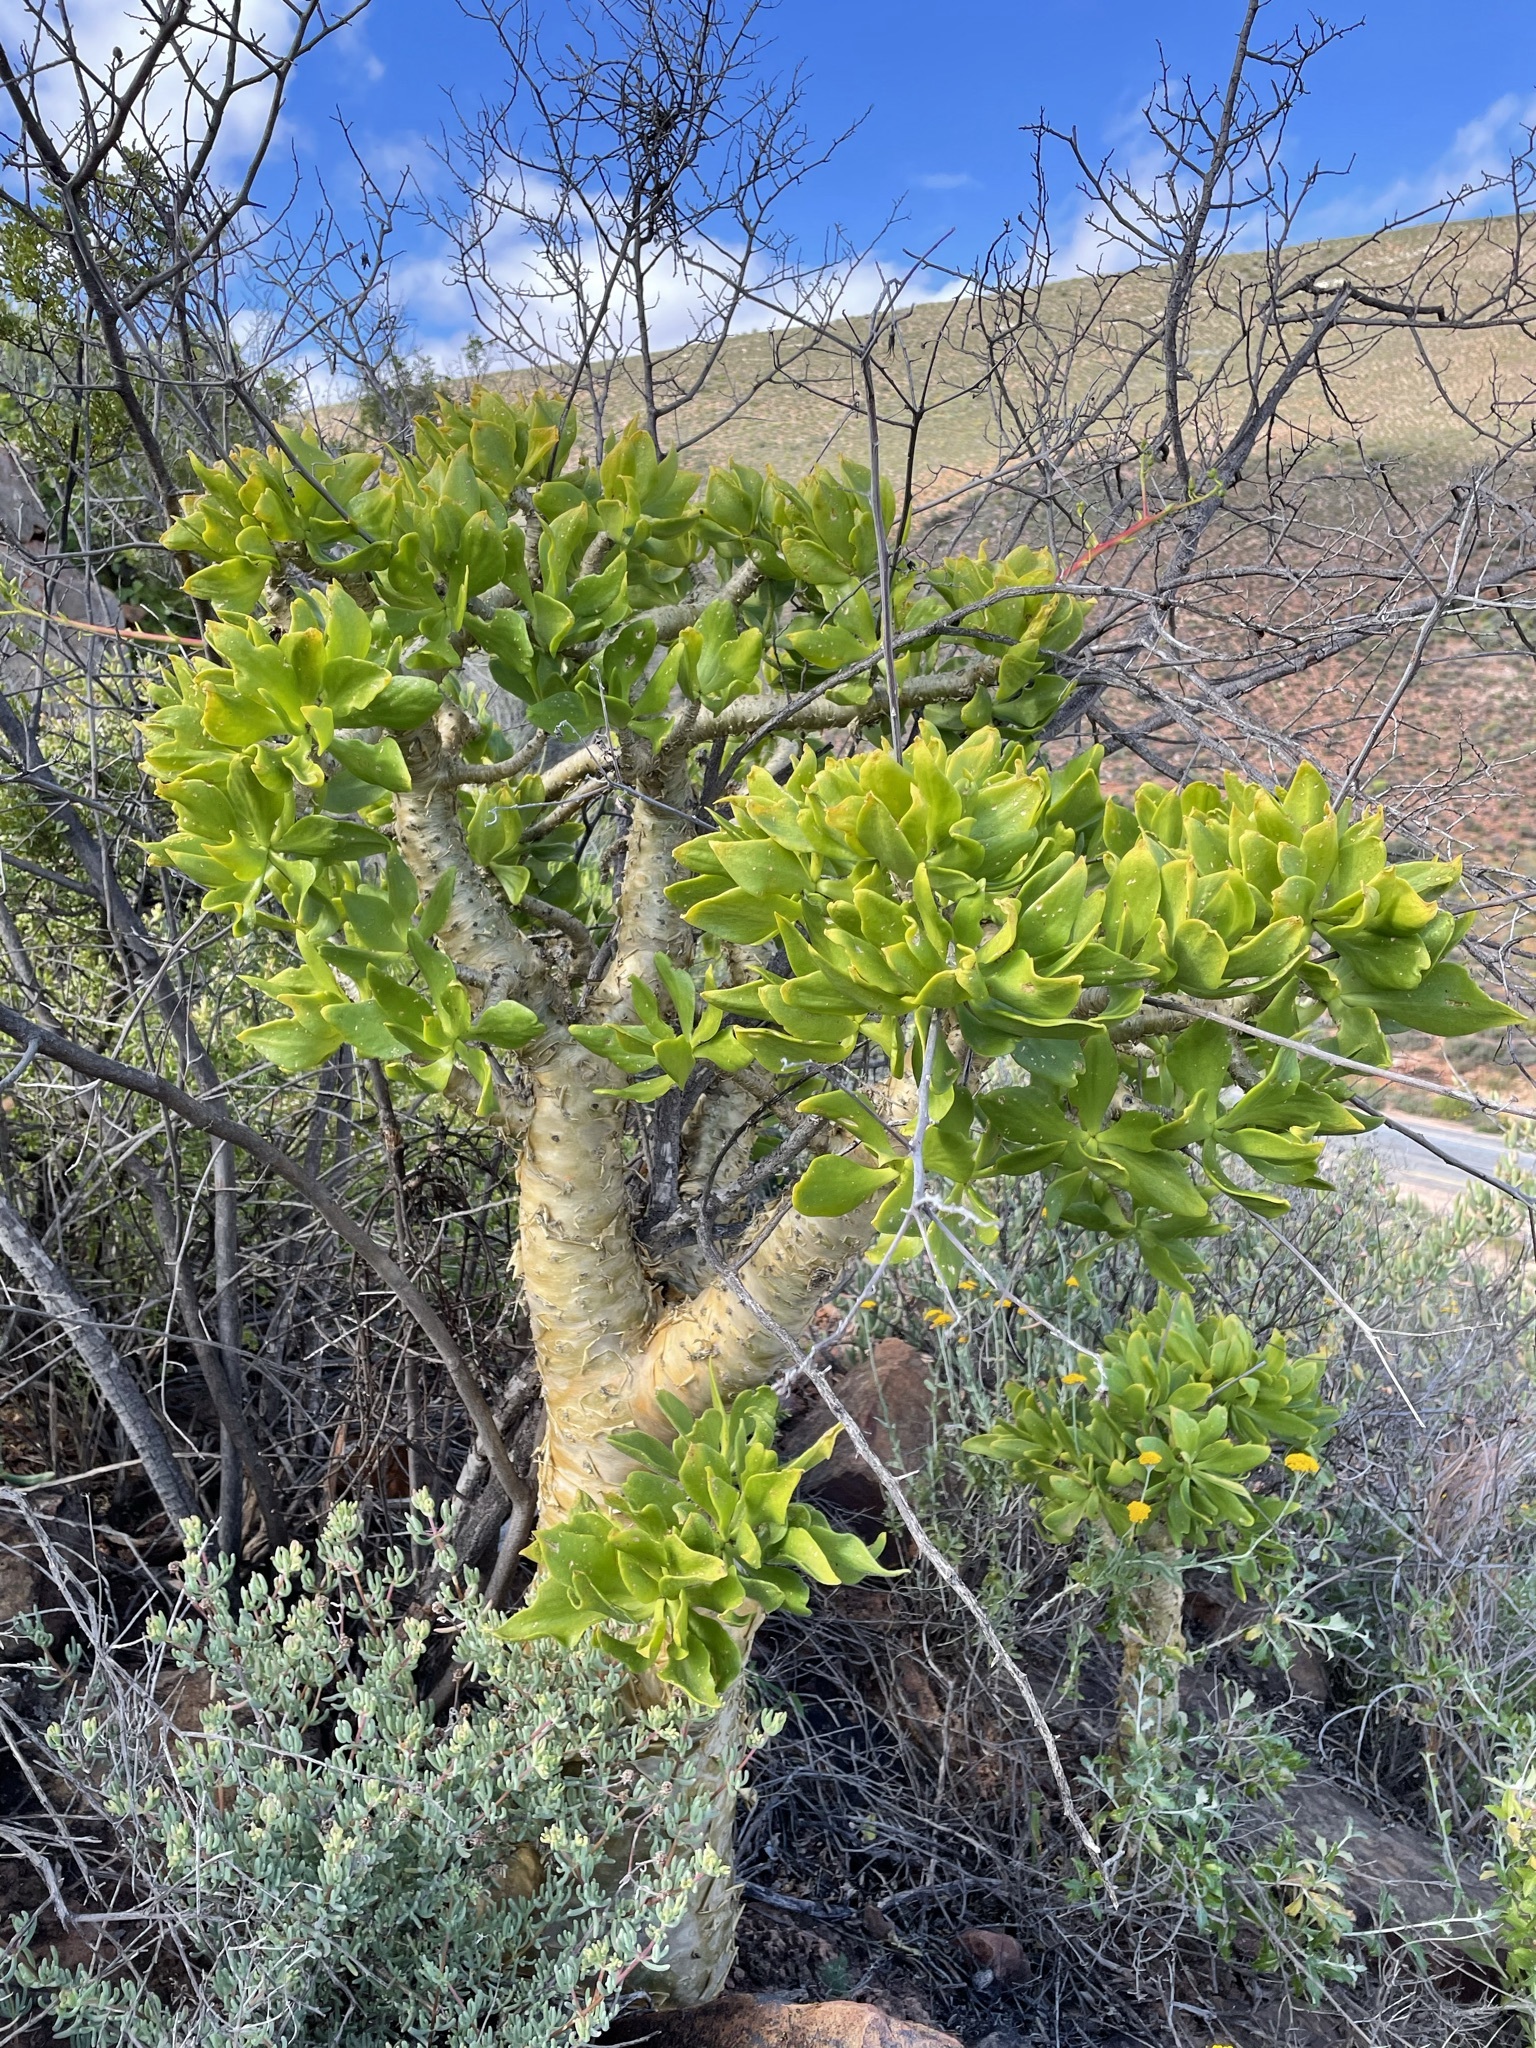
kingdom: Plantae
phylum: Tracheophyta
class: Magnoliopsida
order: Saxifragales
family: Crassulaceae
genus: Tylecodon
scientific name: Tylecodon paniculatus
